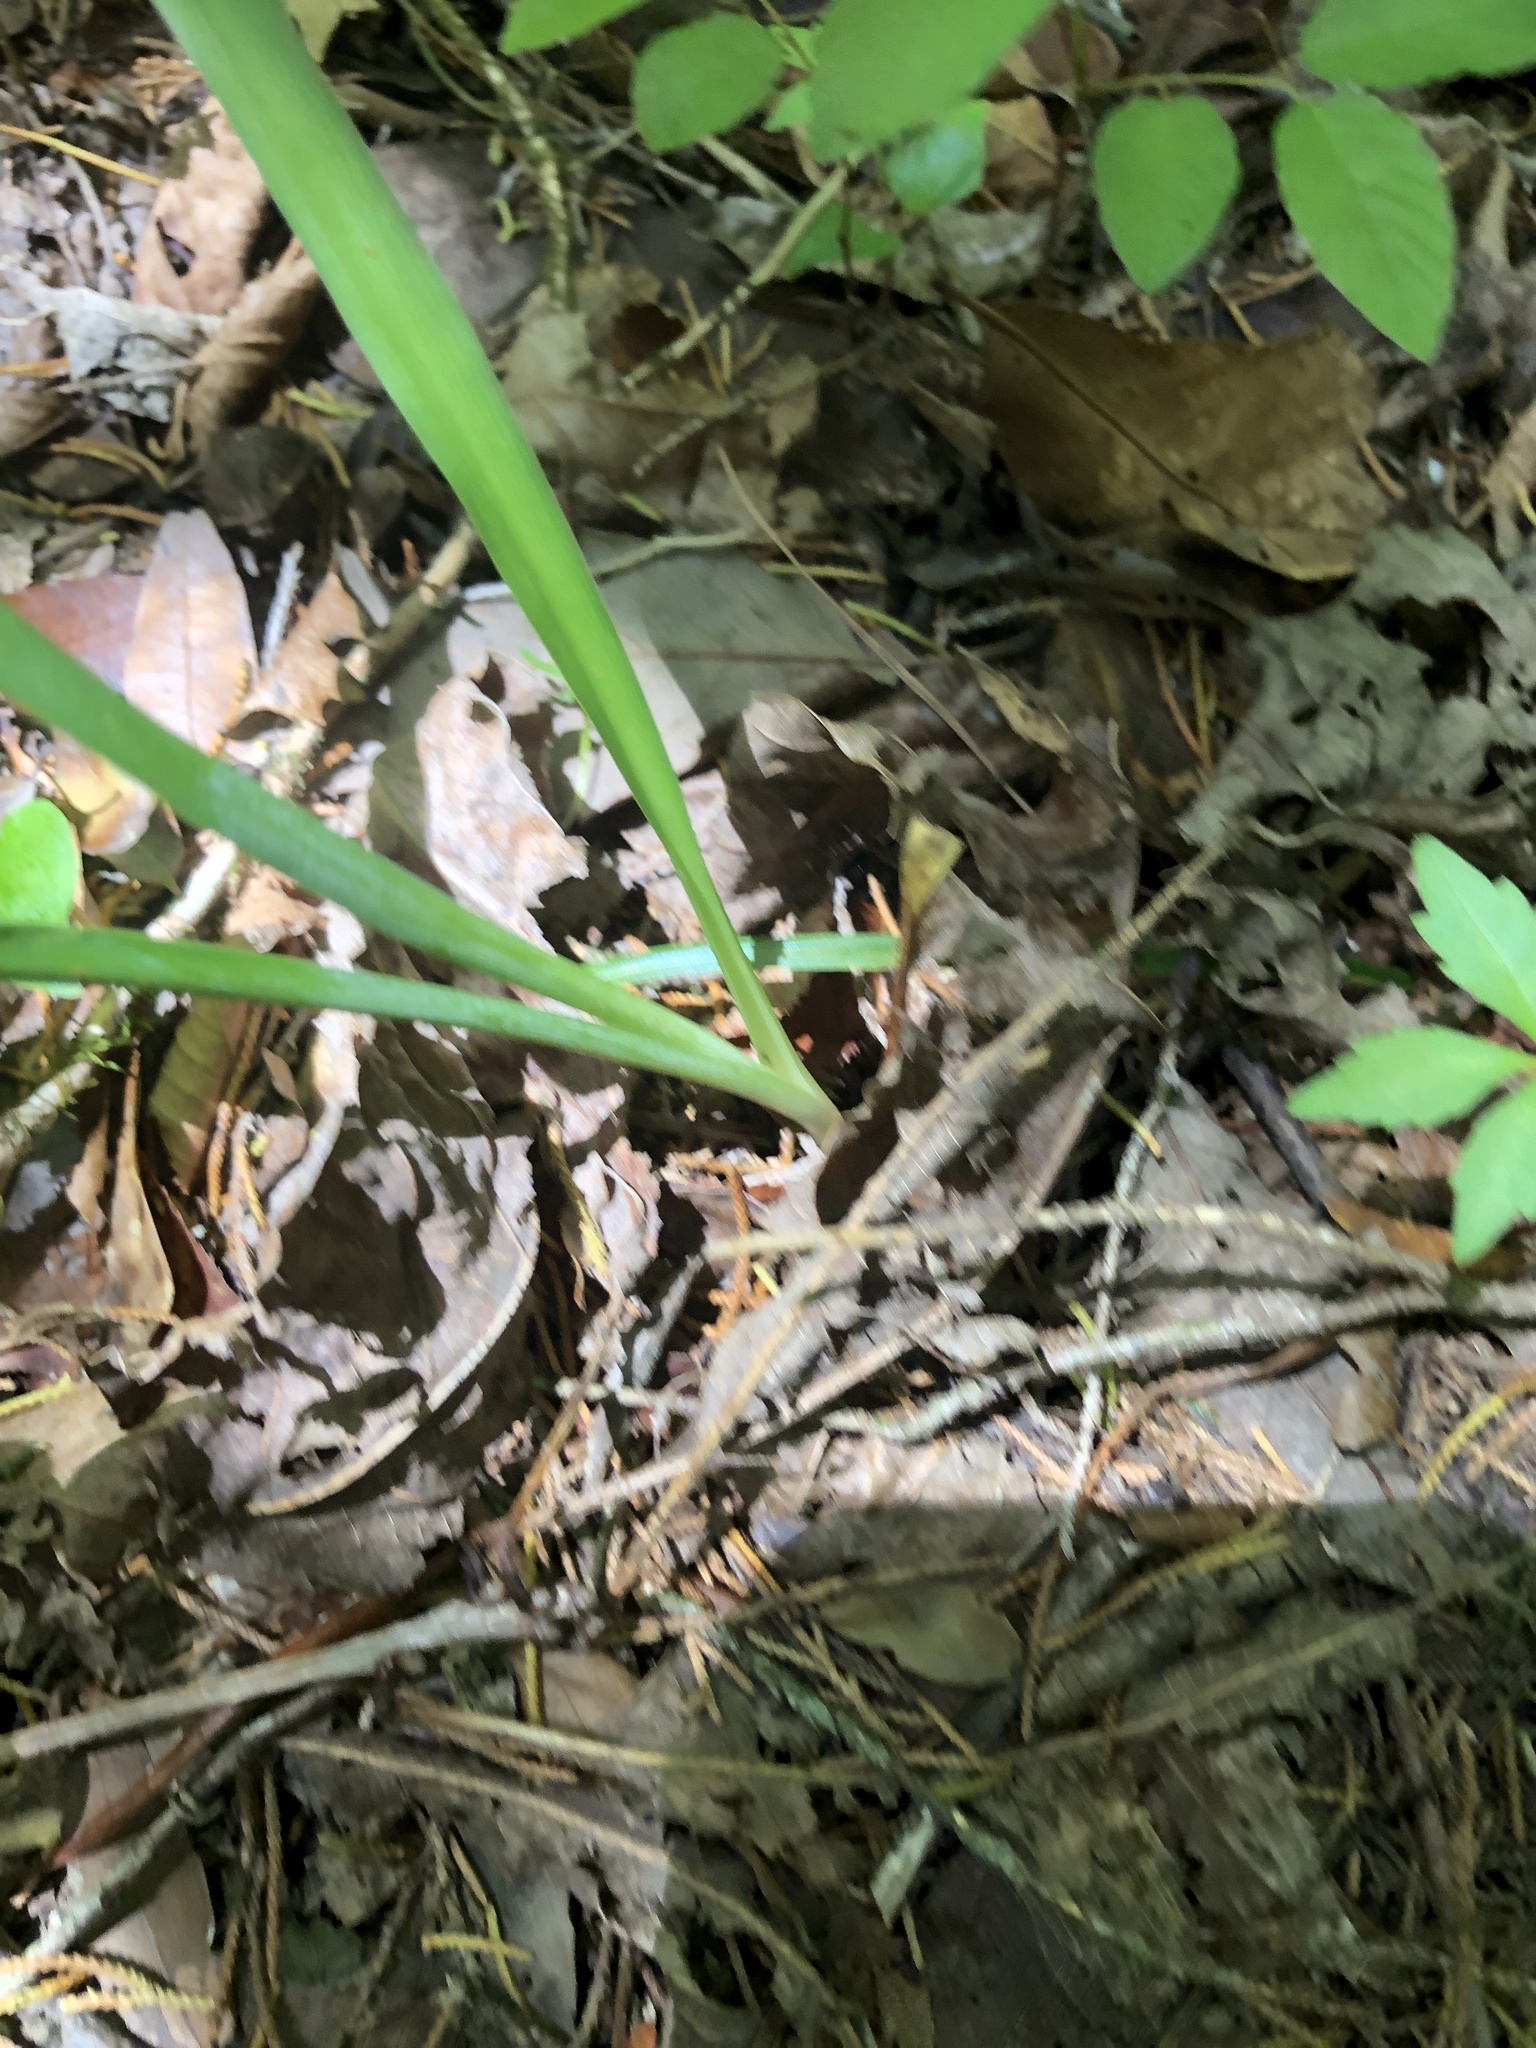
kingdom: Plantae
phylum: Tracheophyta
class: Liliopsida
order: Asparagales
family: Asparagaceae
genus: Agave
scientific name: Agave virginica
